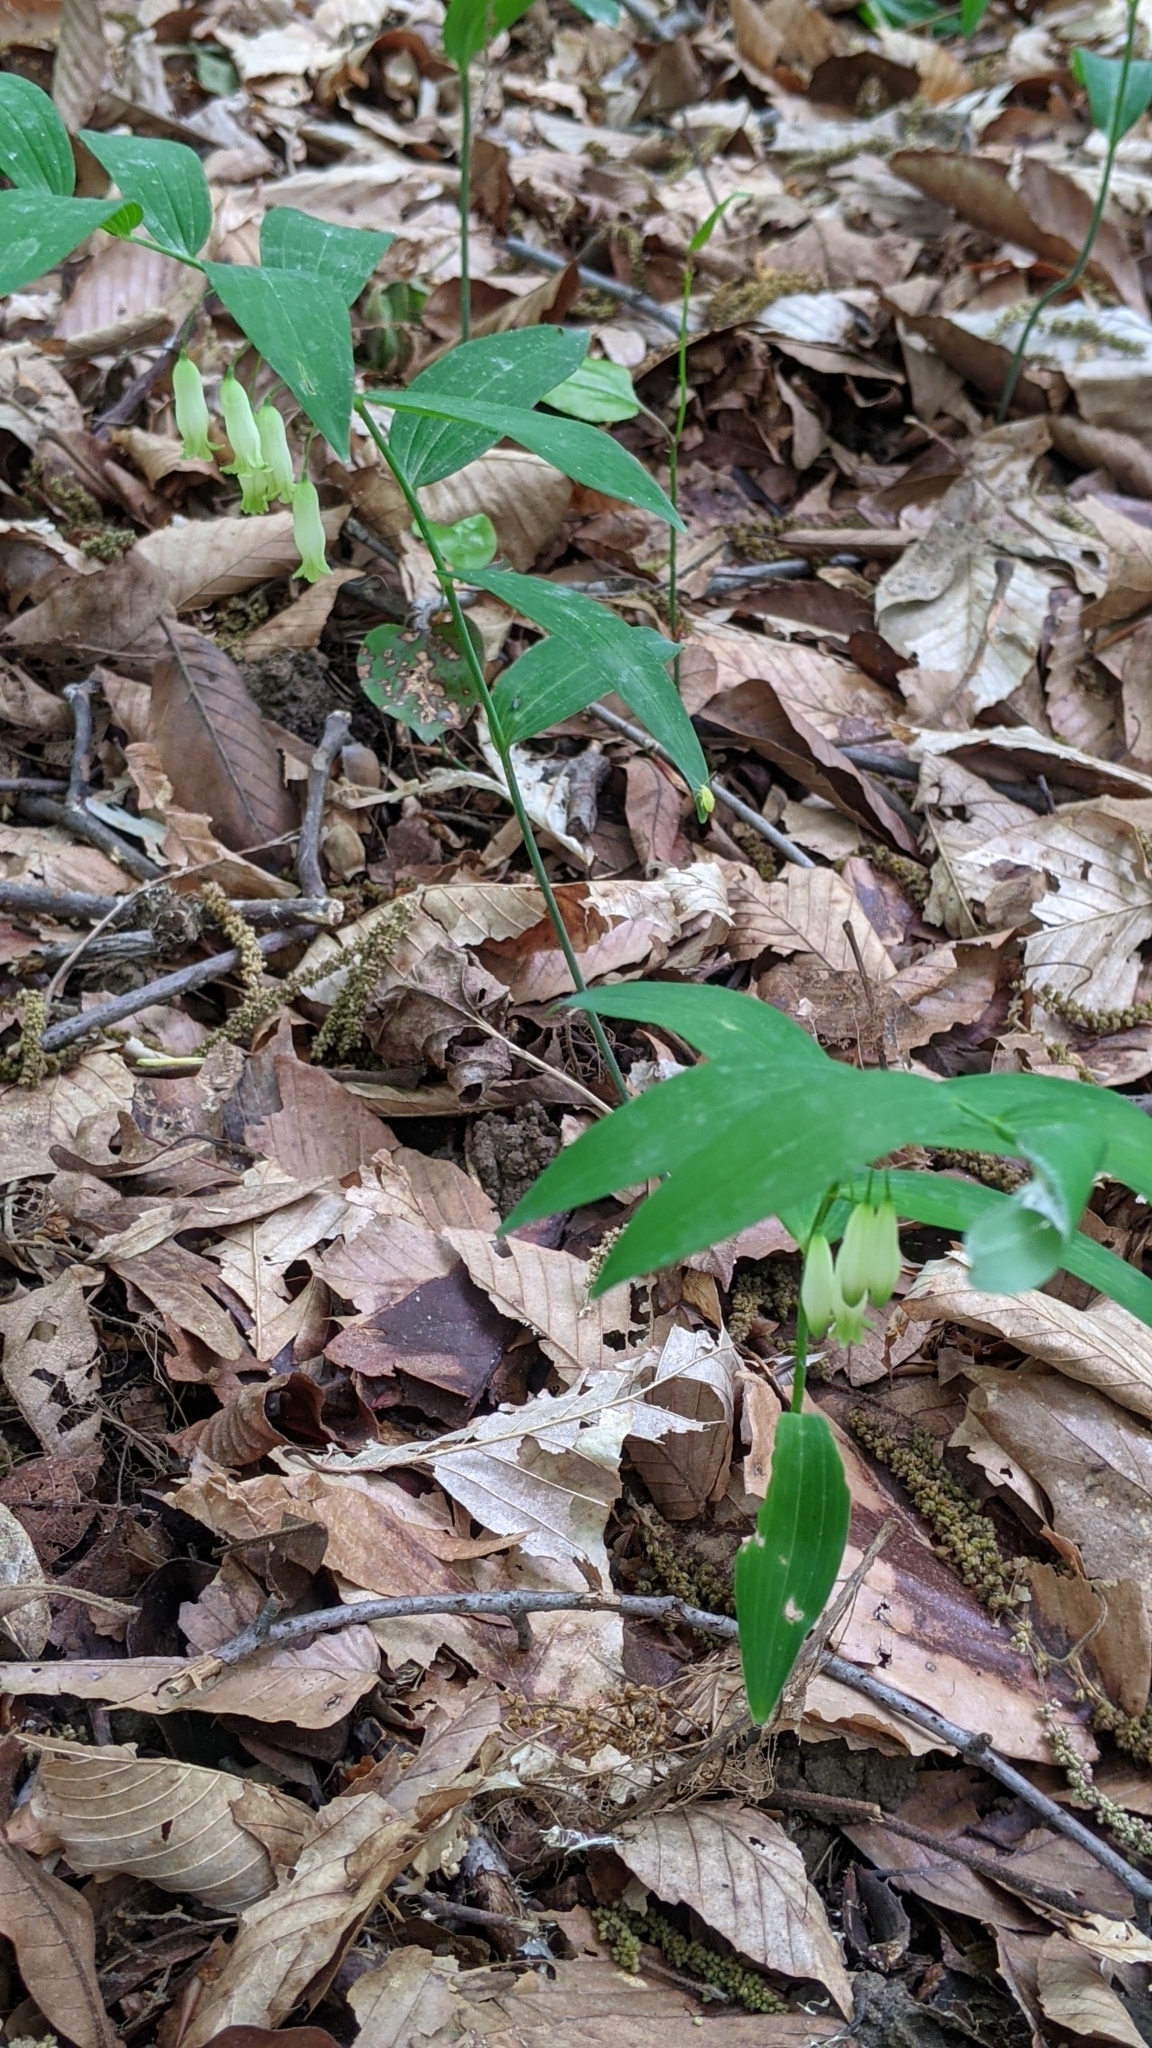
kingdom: Plantae
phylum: Tracheophyta
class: Liliopsida
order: Asparagales
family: Asparagaceae
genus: Polygonatum
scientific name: Polygonatum biflorum
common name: American solomon's-seal
